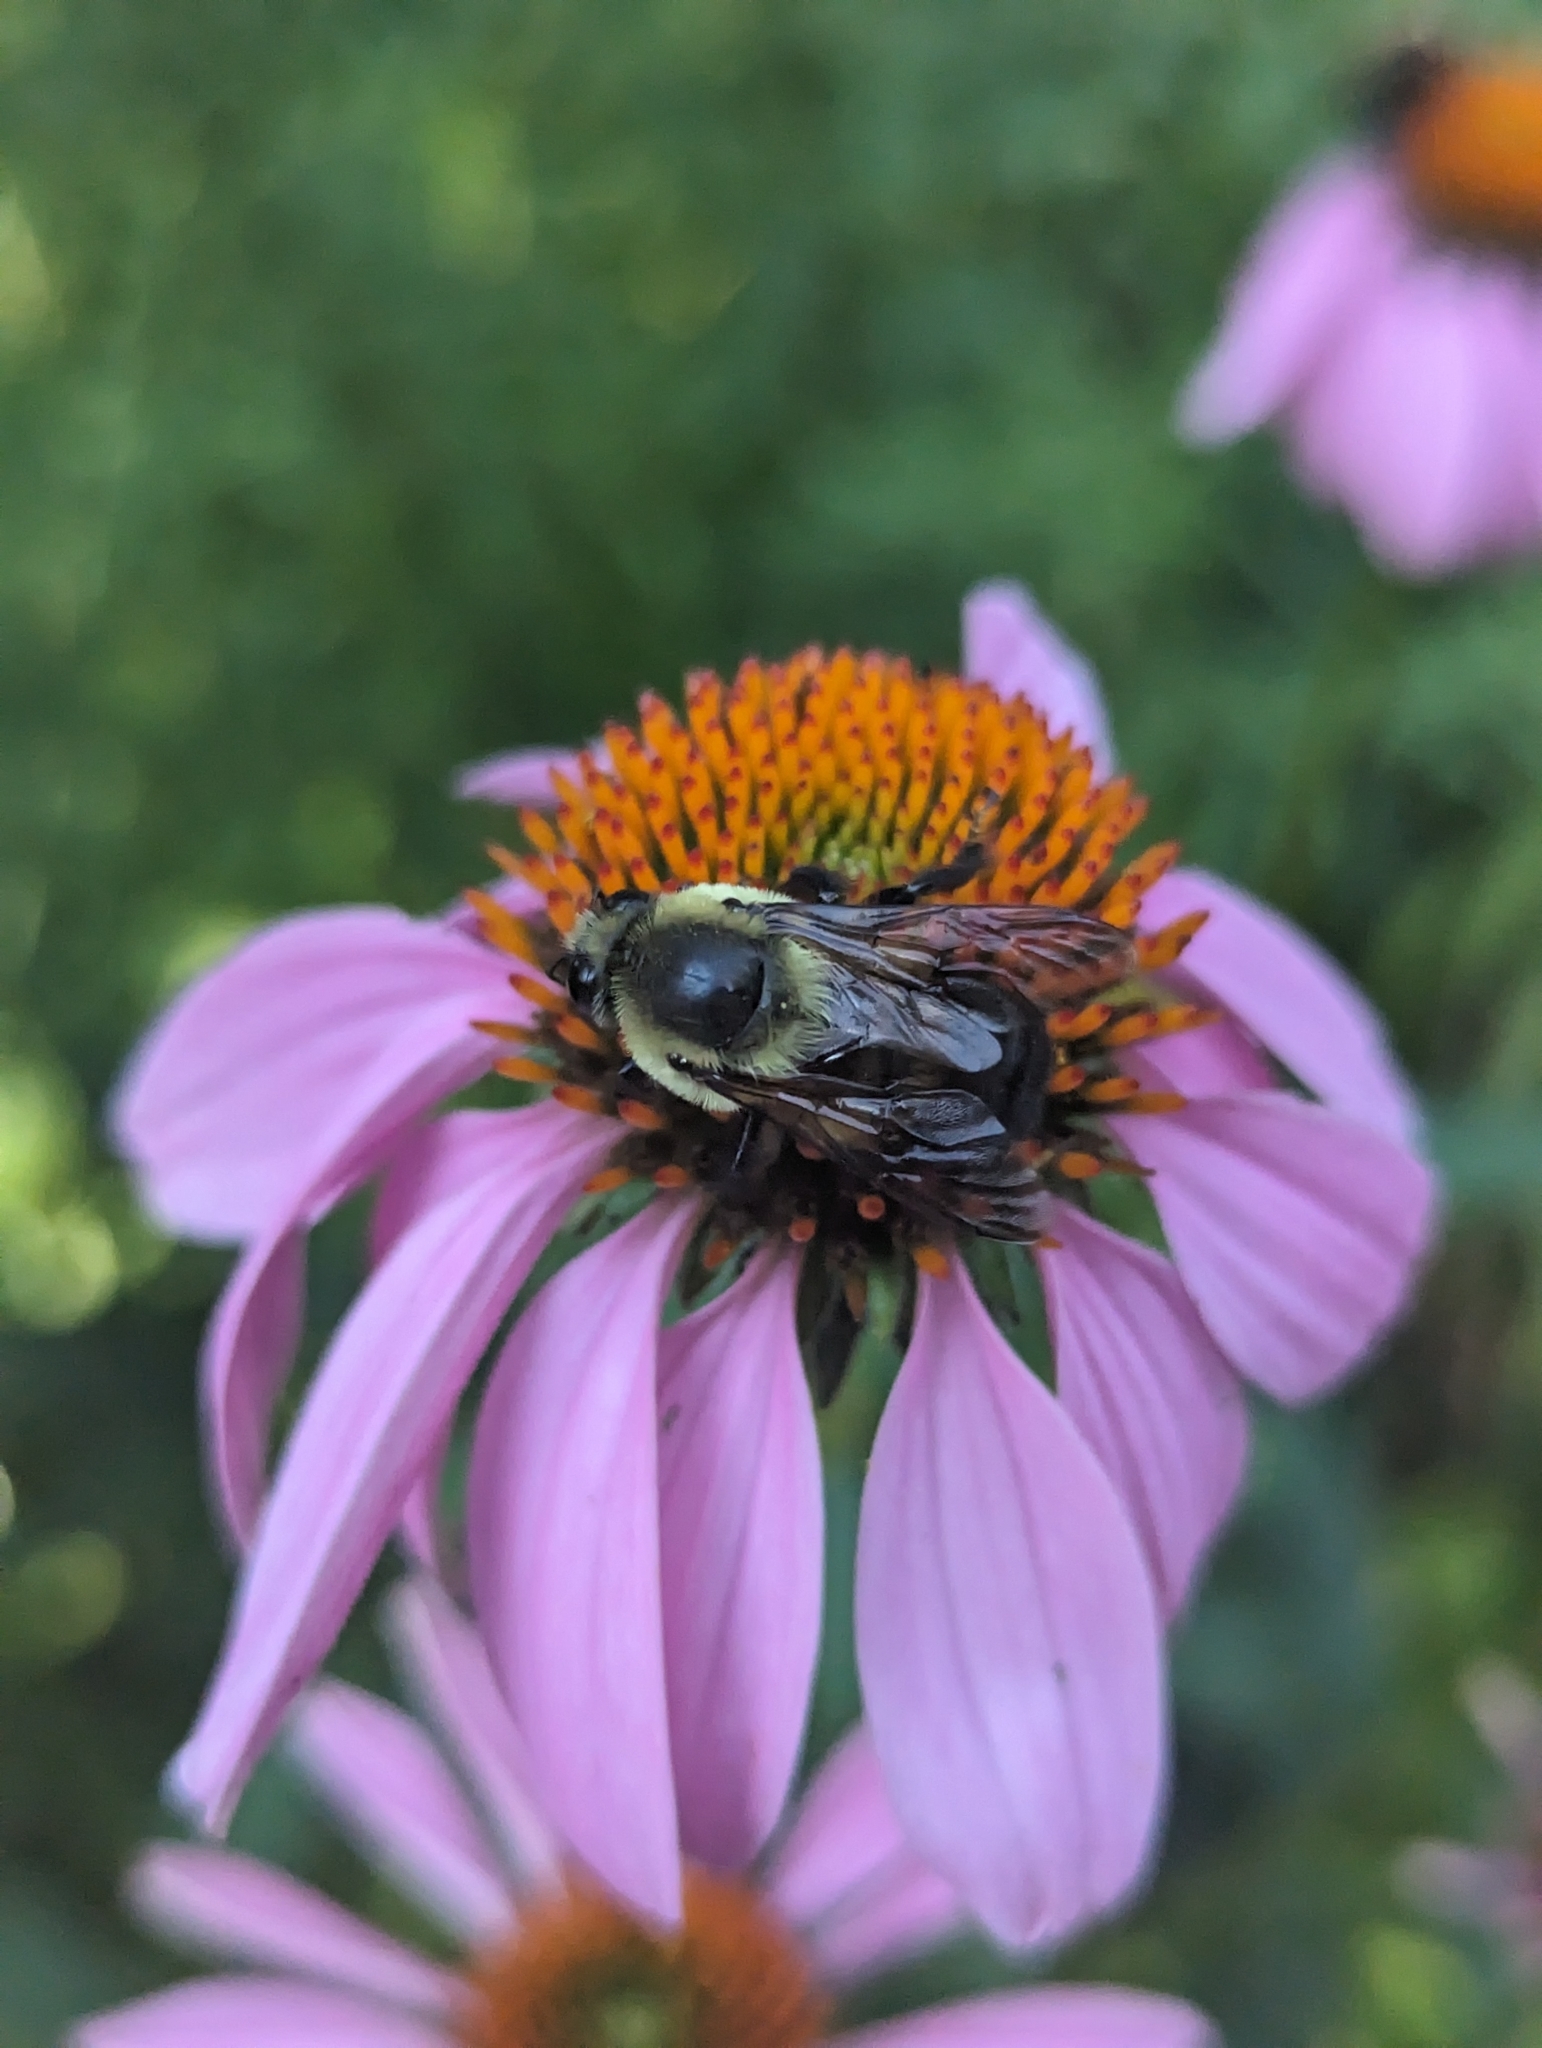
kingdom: Animalia
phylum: Arthropoda
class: Insecta
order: Hymenoptera
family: Apidae
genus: Bombus
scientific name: Bombus griseocollis
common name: Brown-belted bumble bee
